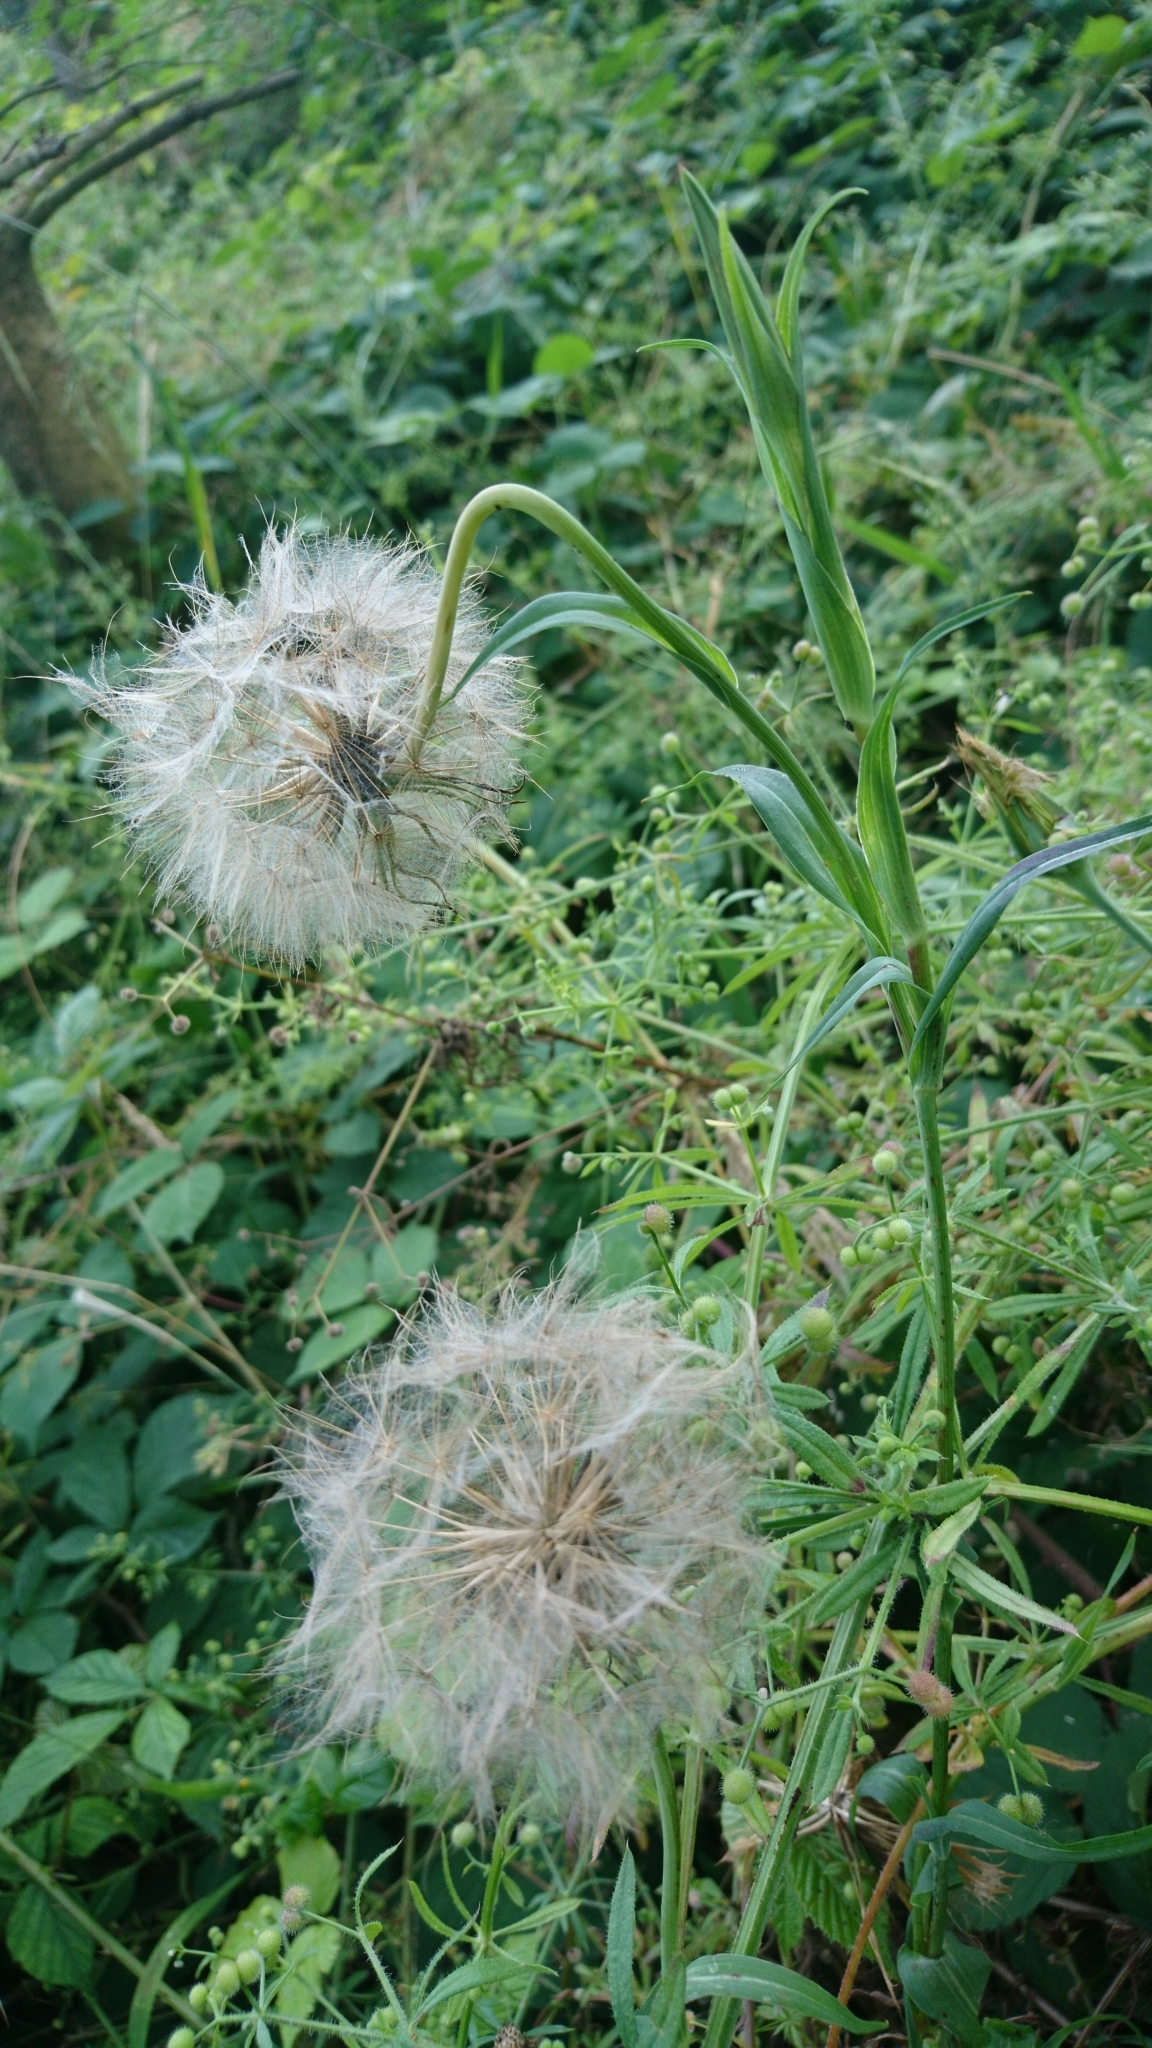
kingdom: Plantae
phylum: Tracheophyta
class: Magnoliopsida
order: Asterales
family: Asteraceae
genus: Tragopogon
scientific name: Tragopogon pratensis
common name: Goat's-beard
